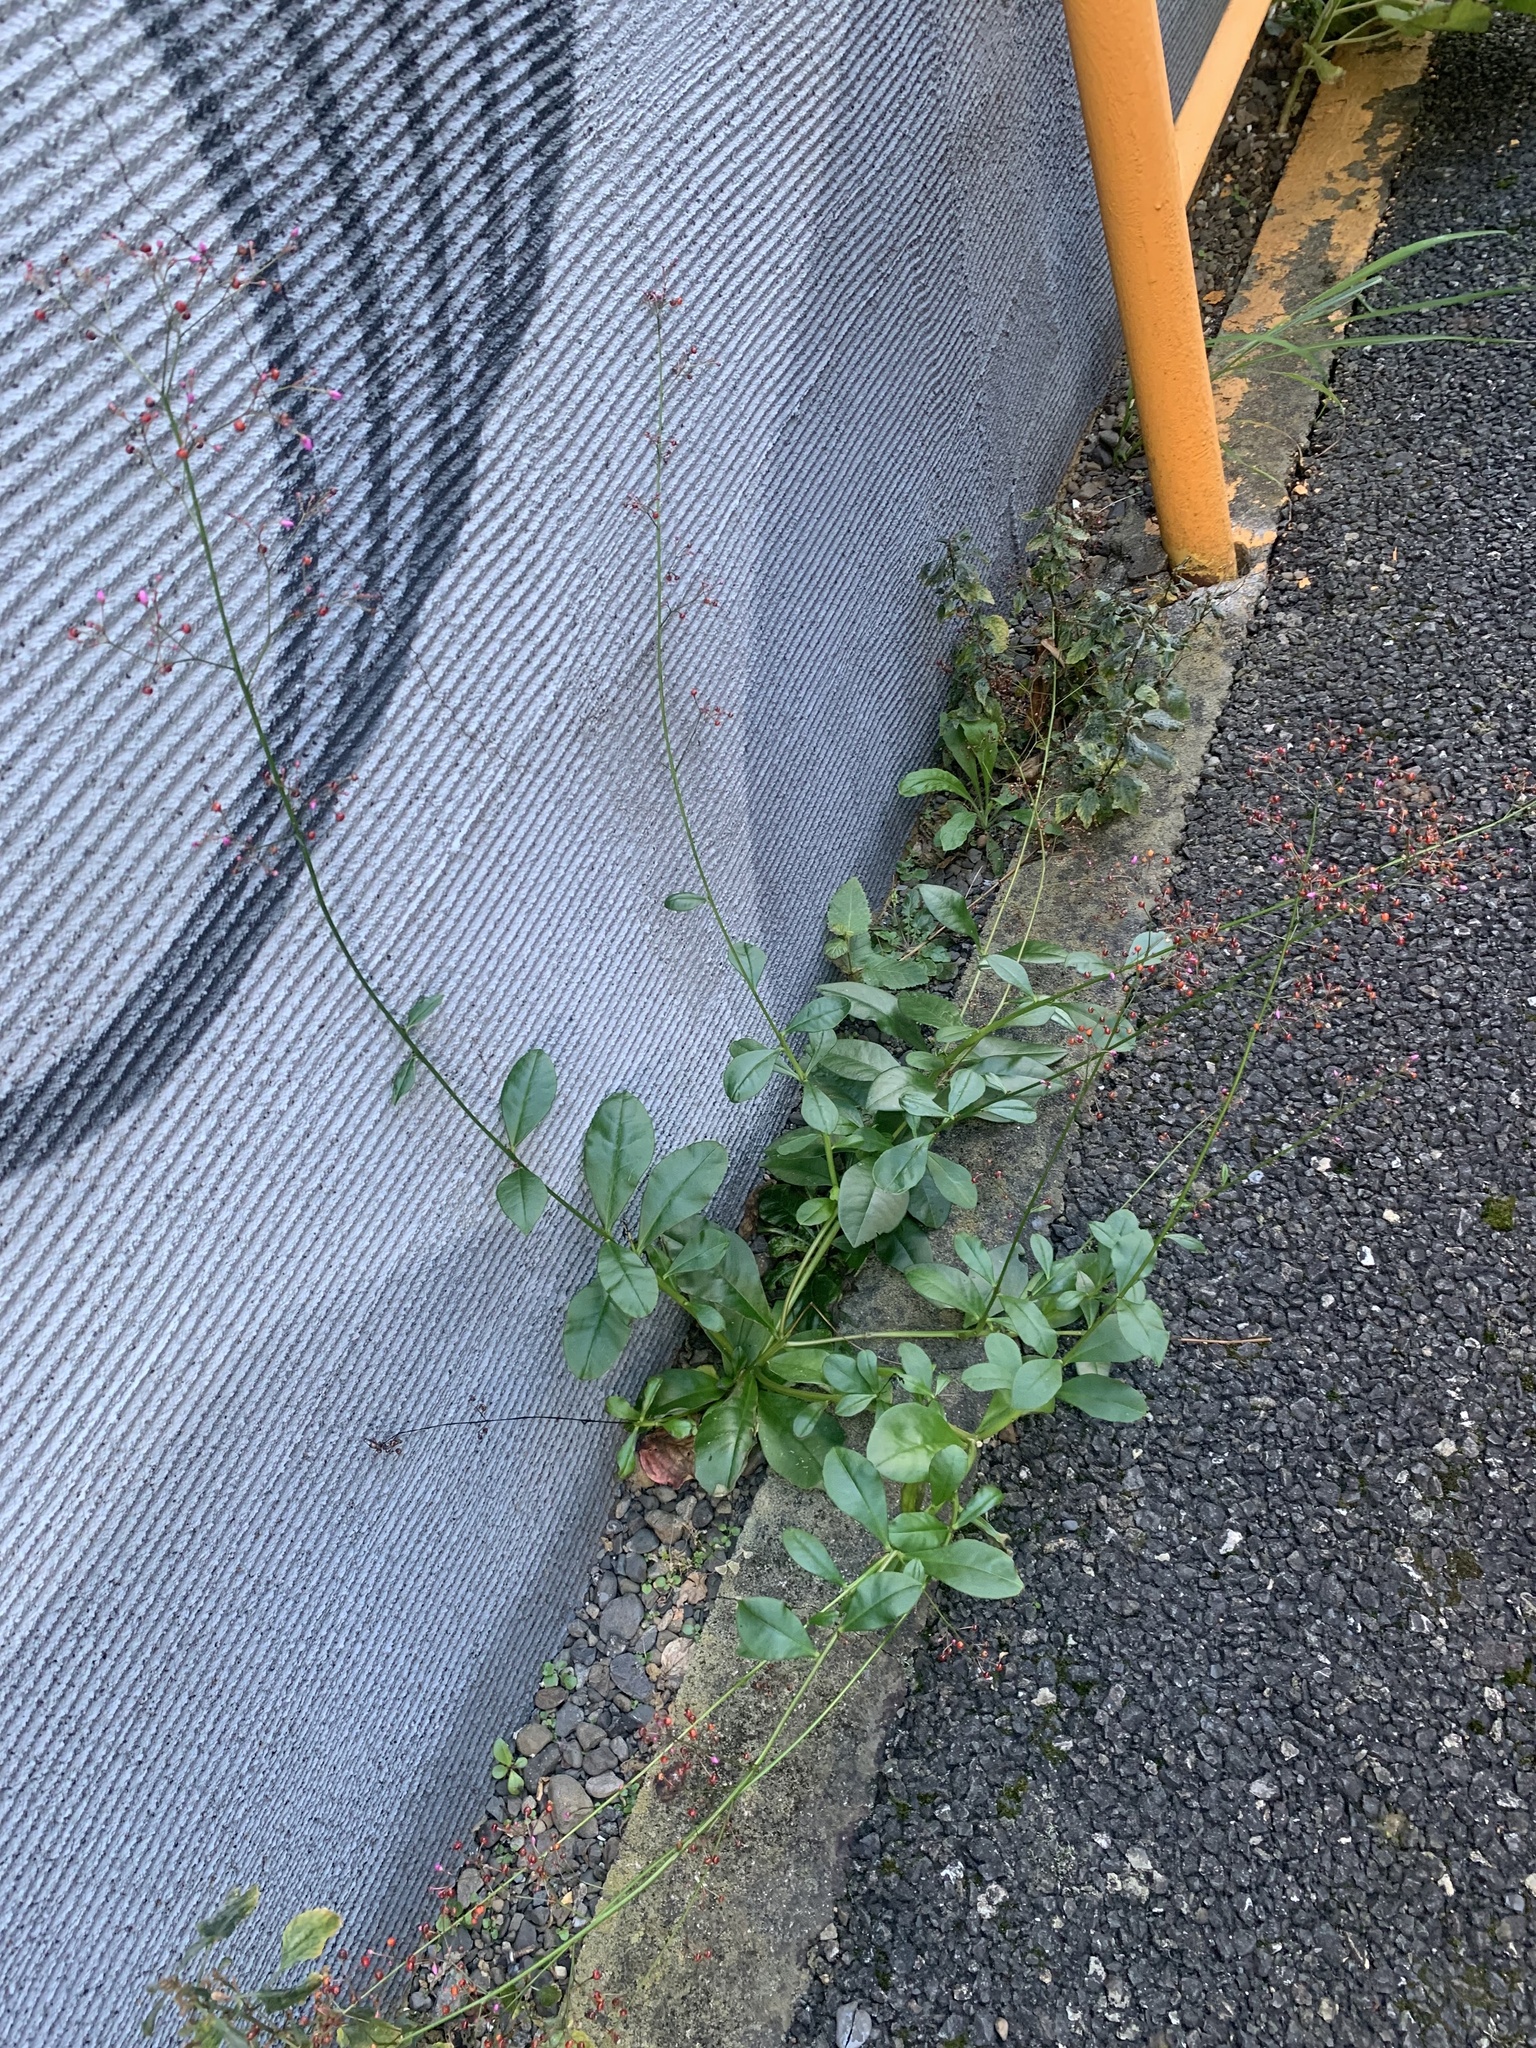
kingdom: Plantae
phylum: Tracheophyta
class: Magnoliopsida
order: Caryophyllales
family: Talinaceae
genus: Talinum
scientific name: Talinum paniculatum
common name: Jewels of opar
